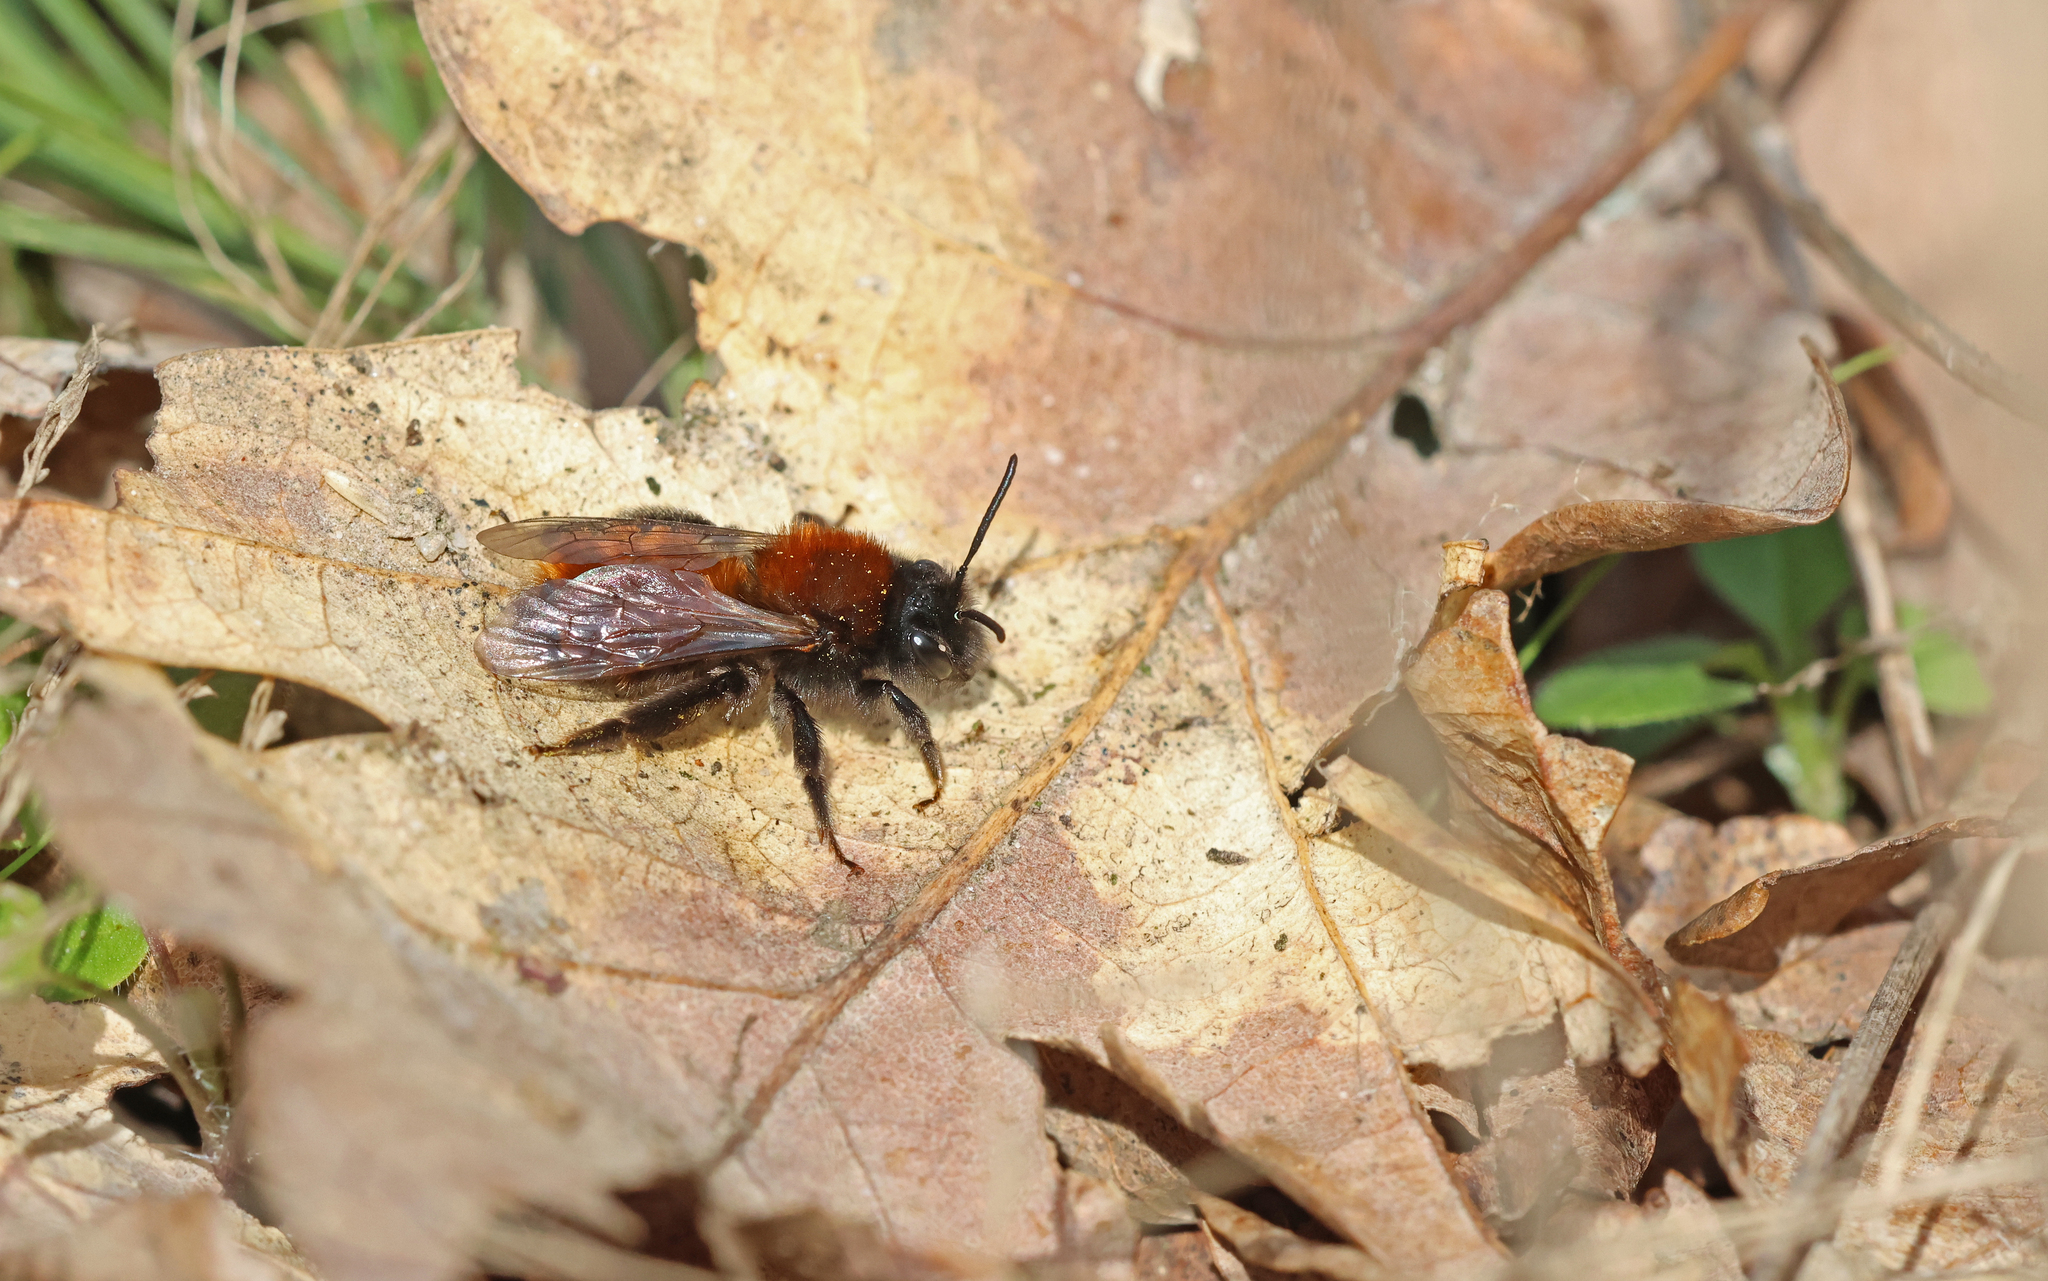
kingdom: Animalia
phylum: Arthropoda
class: Insecta
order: Hymenoptera
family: Andrenidae
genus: Andrena
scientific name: Andrena fulva
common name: Tawny mining bee
